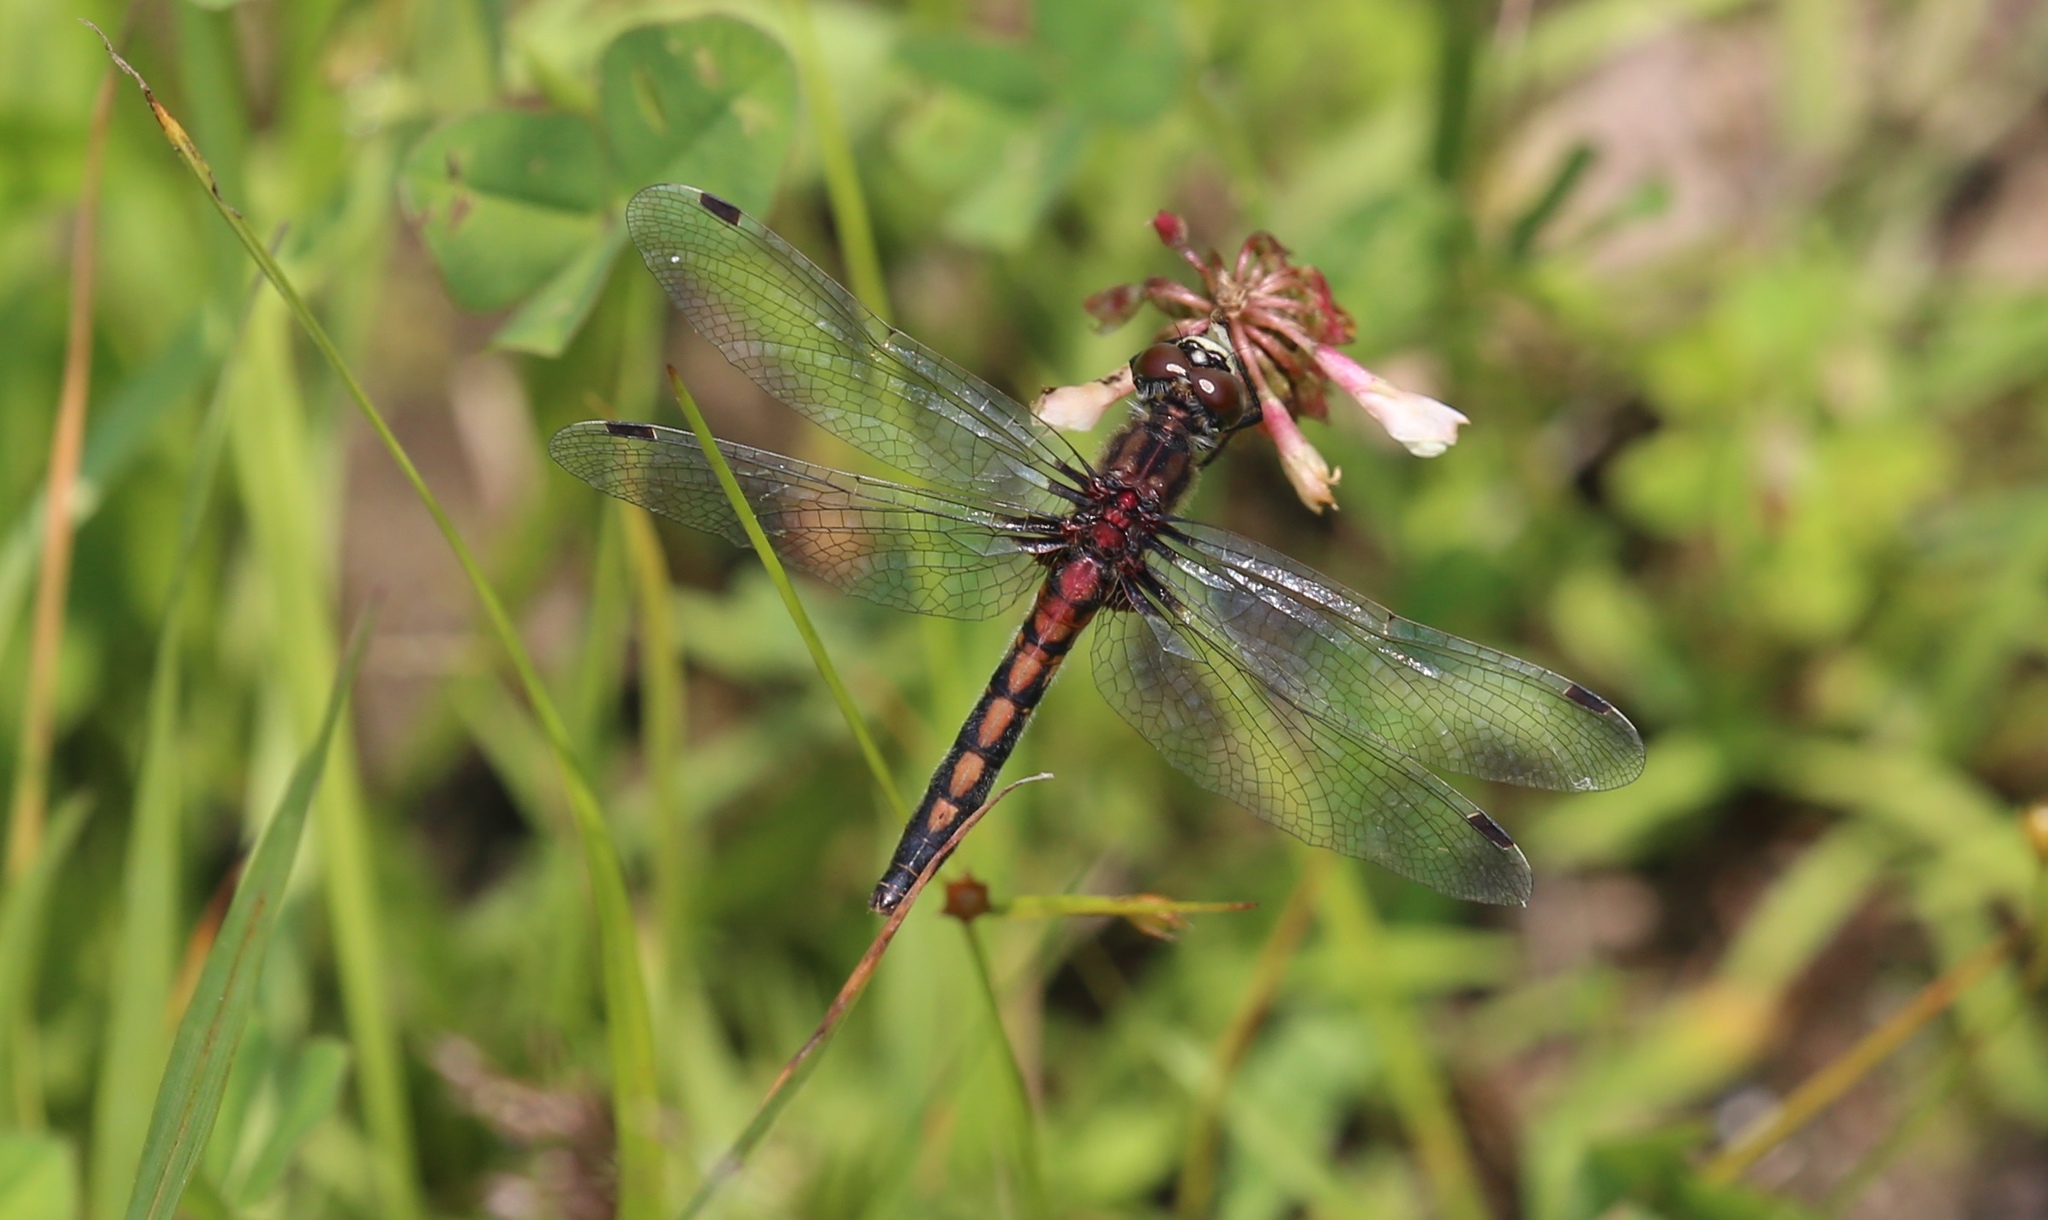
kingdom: Animalia
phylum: Arthropoda
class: Insecta
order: Odonata
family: Libellulidae
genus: Leucorrhinia
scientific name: Leucorrhinia hudsonica
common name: Hudsonian whiteface
